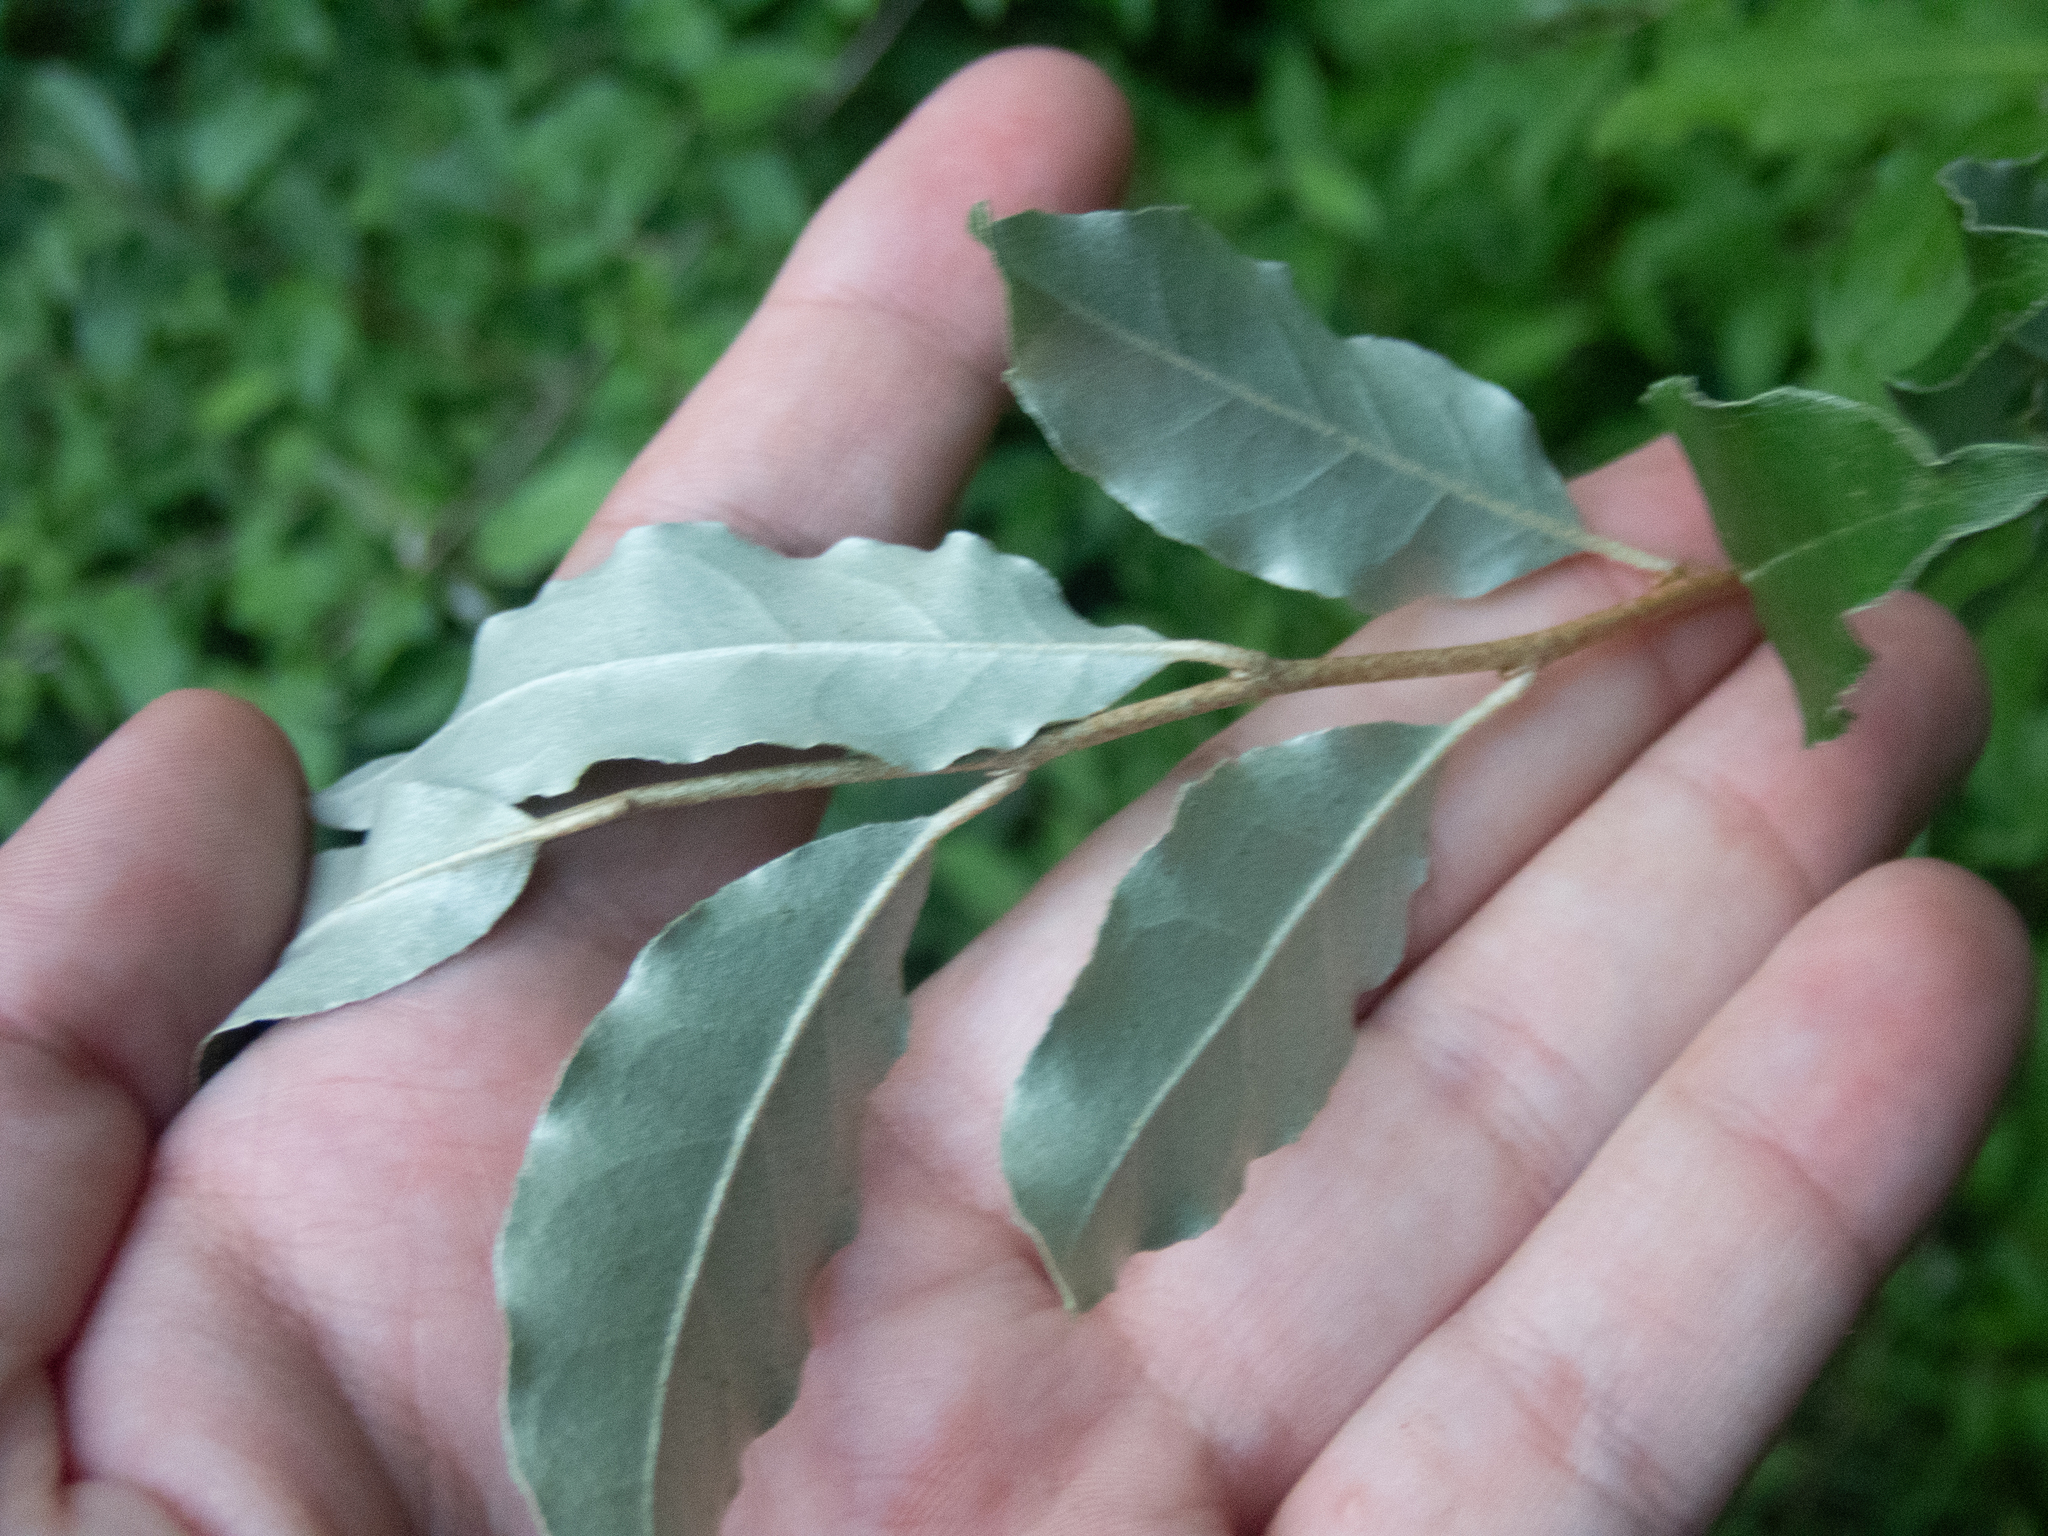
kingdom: Plantae
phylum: Tracheophyta
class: Magnoliopsida
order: Rosales
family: Elaeagnaceae
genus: Elaeagnus
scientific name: Elaeagnus umbellata
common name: Autumn olive
